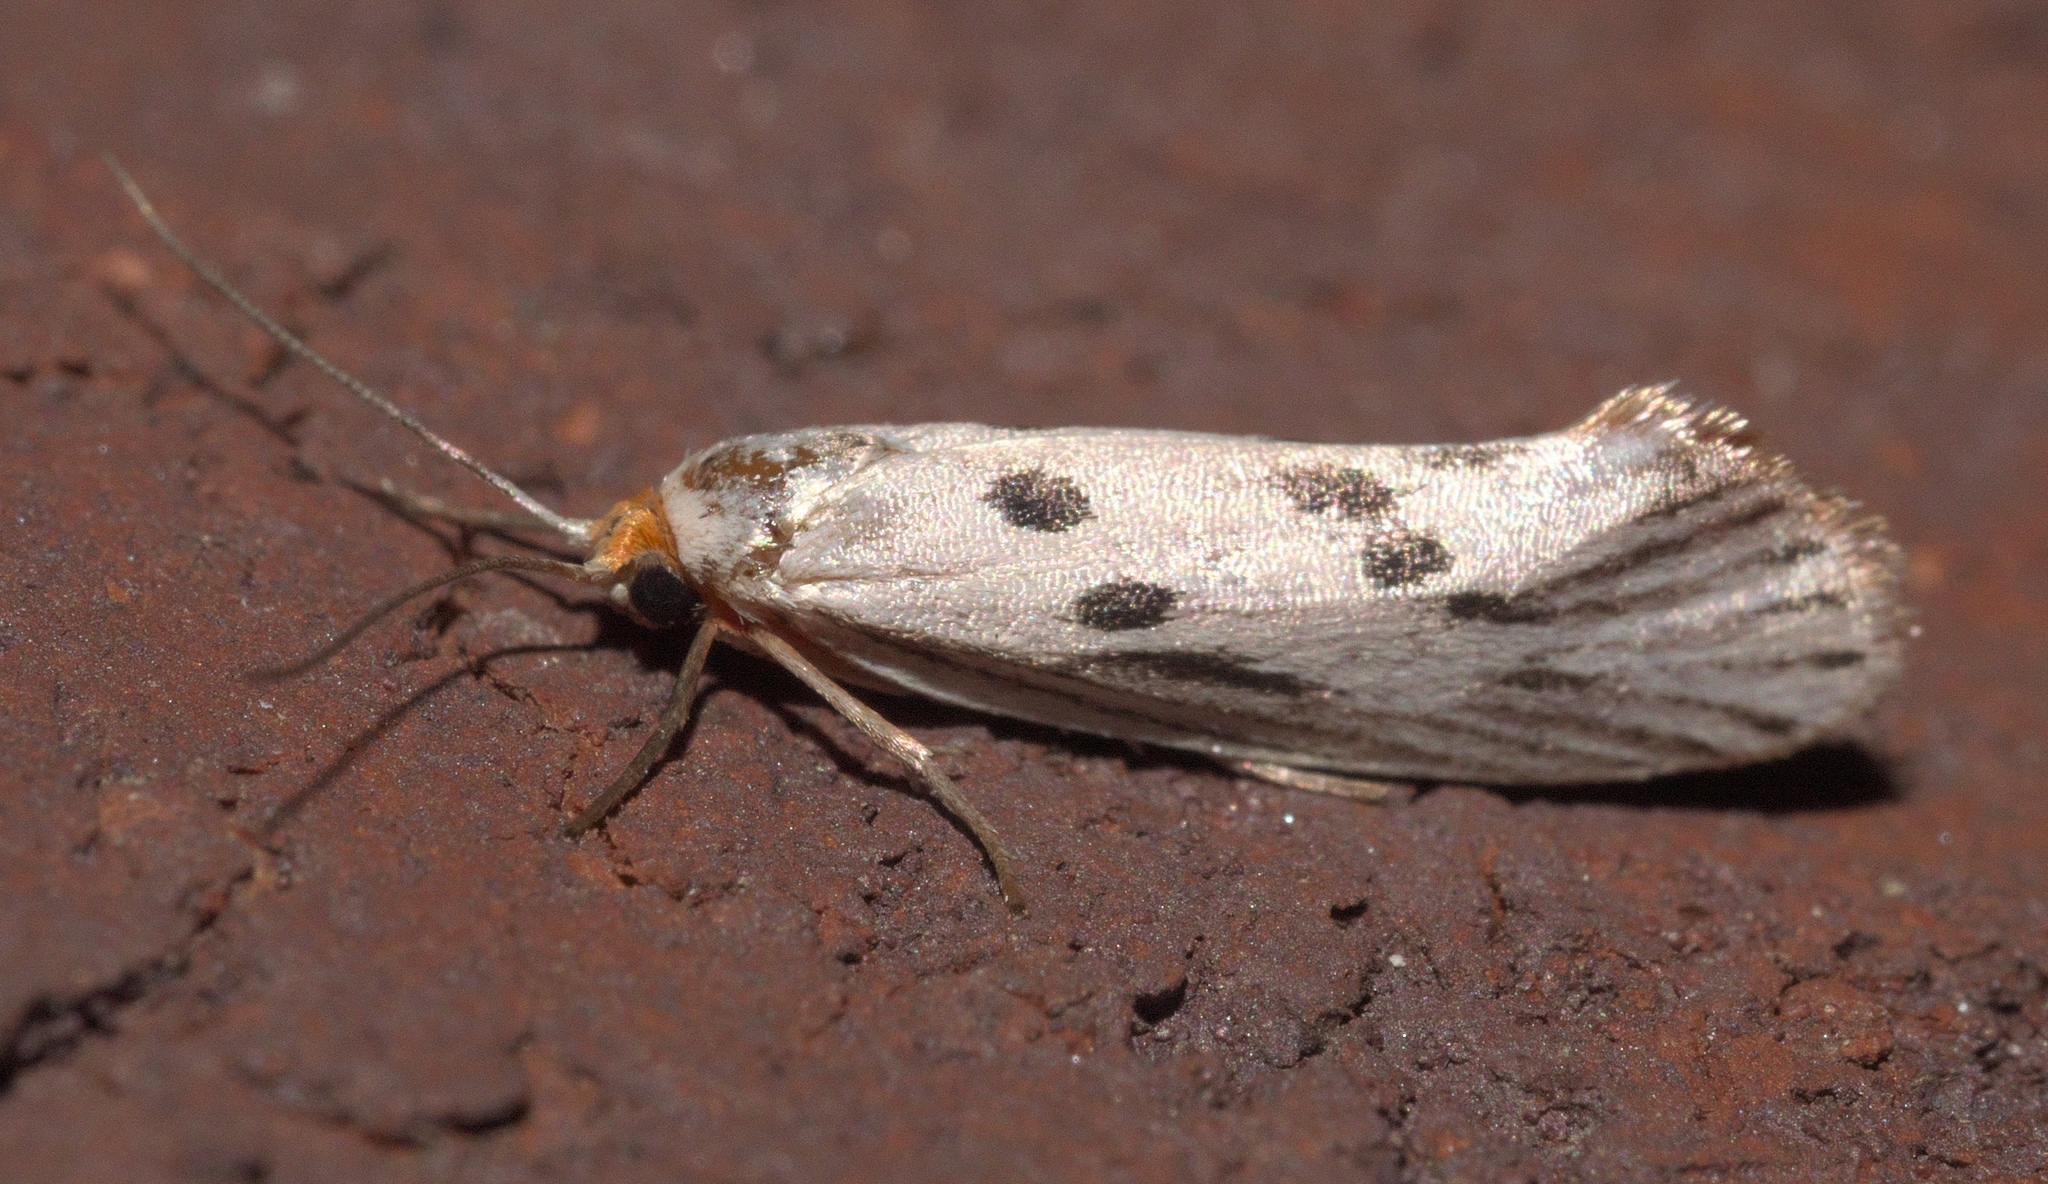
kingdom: Animalia
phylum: Arthropoda
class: Insecta
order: Lepidoptera
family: Lacturidae
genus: Lactura
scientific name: Lactura
